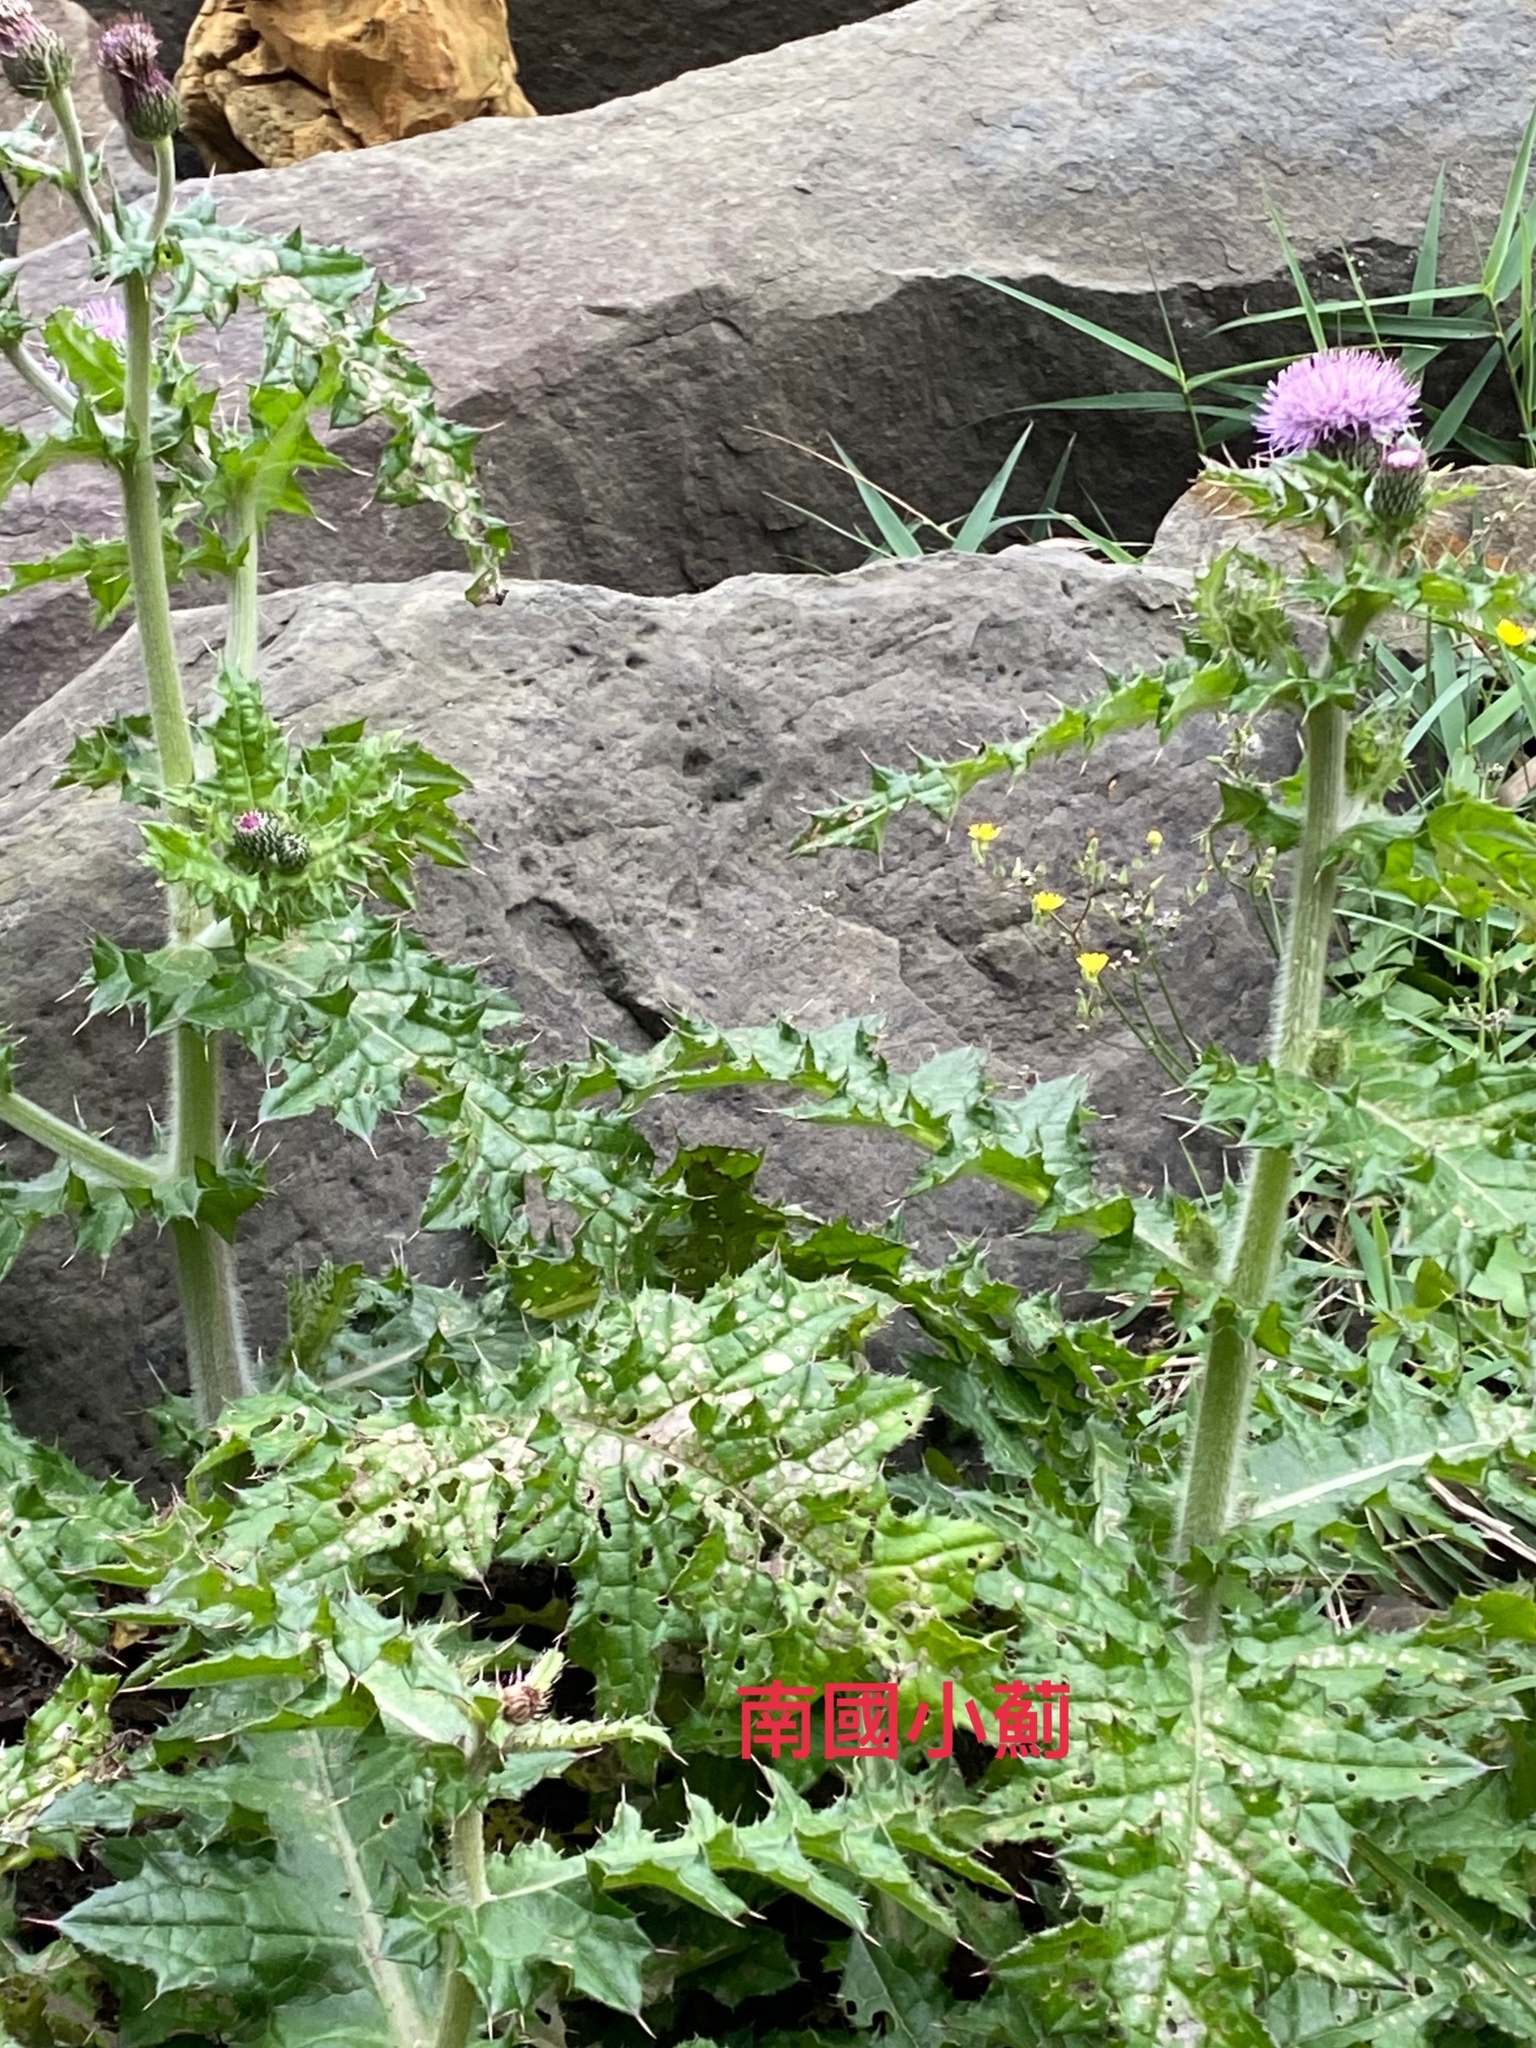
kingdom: Plantae
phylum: Tracheophyta
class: Magnoliopsida
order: Asterales
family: Asteraceae
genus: Cirsium
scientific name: Cirsium japonicum
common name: Japanese thistle
